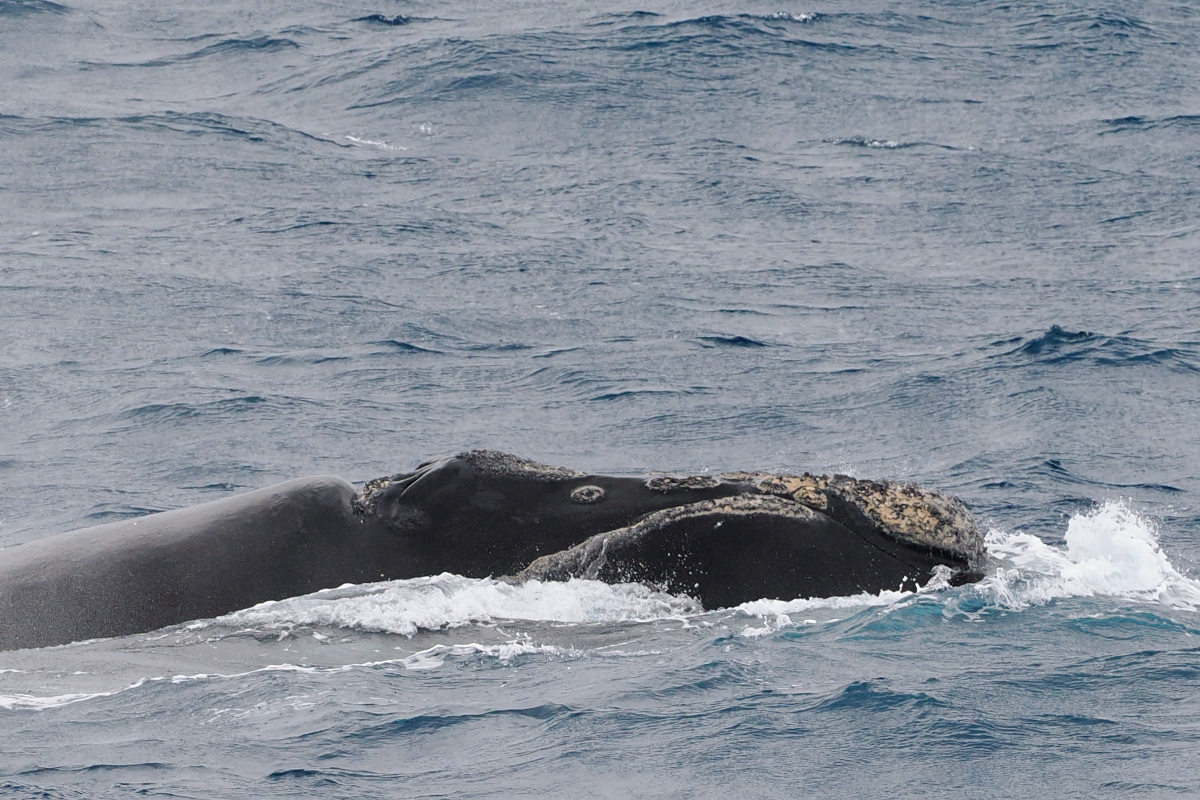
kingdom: Animalia
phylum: Chordata
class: Mammalia
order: Cetacea
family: Balaenidae
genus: Eubalaena
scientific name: Eubalaena australis
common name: Southern right whale
